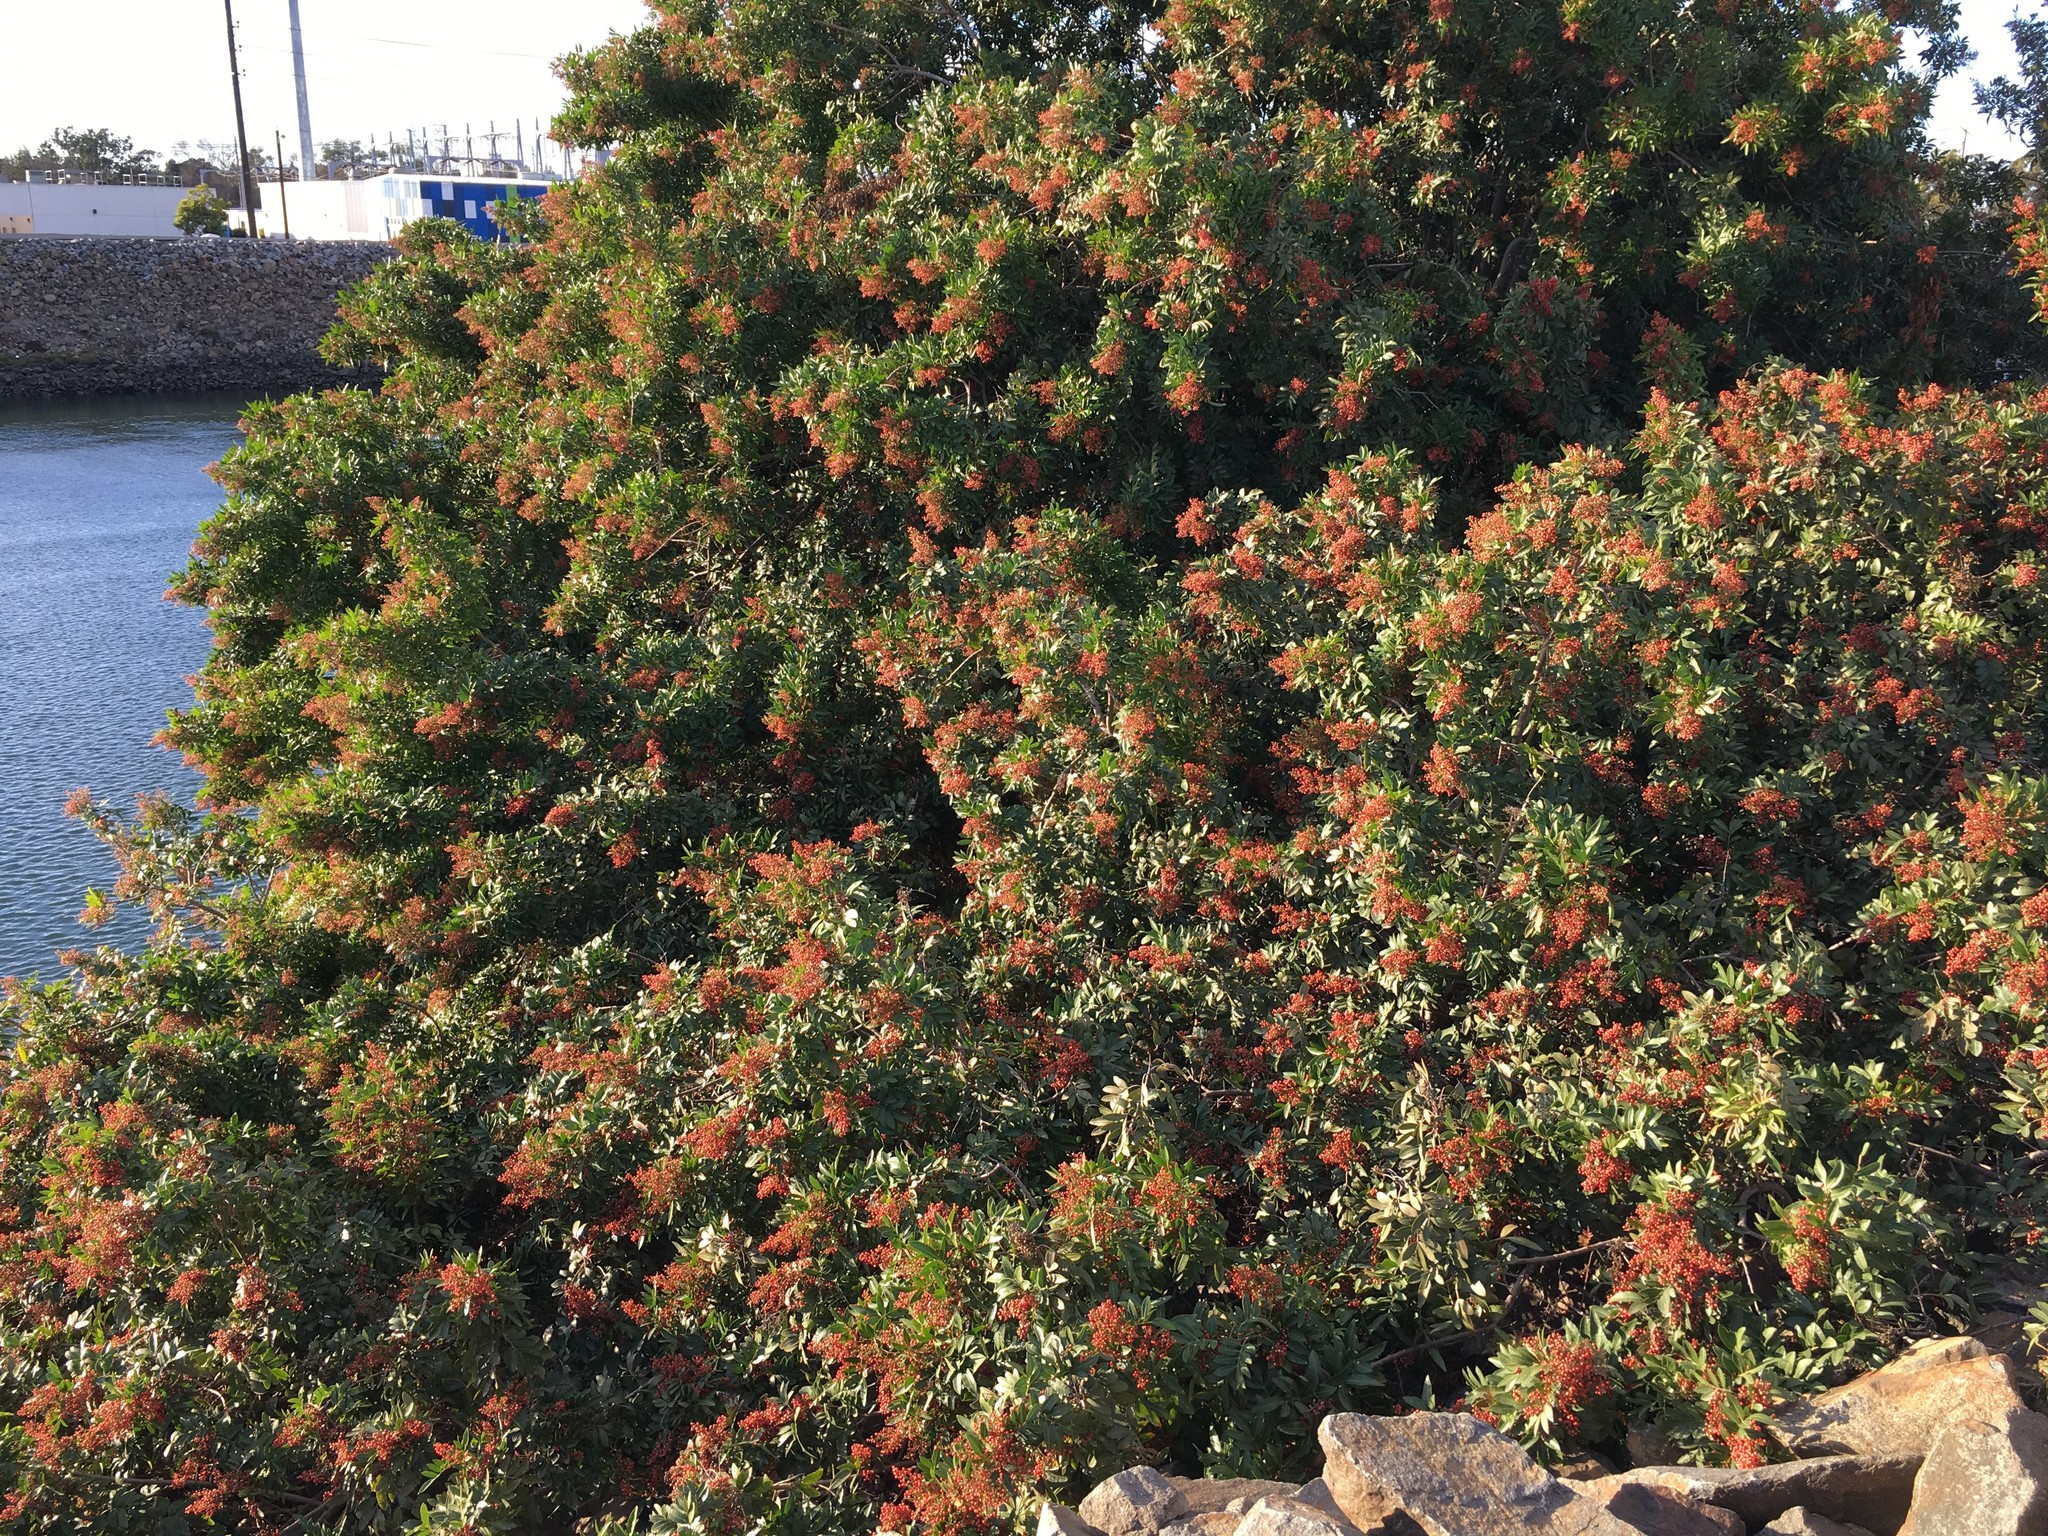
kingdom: Plantae
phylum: Tracheophyta
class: Magnoliopsida
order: Sapindales
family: Anacardiaceae
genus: Schinus
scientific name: Schinus terebinthifolia
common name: Brazilian peppertree
